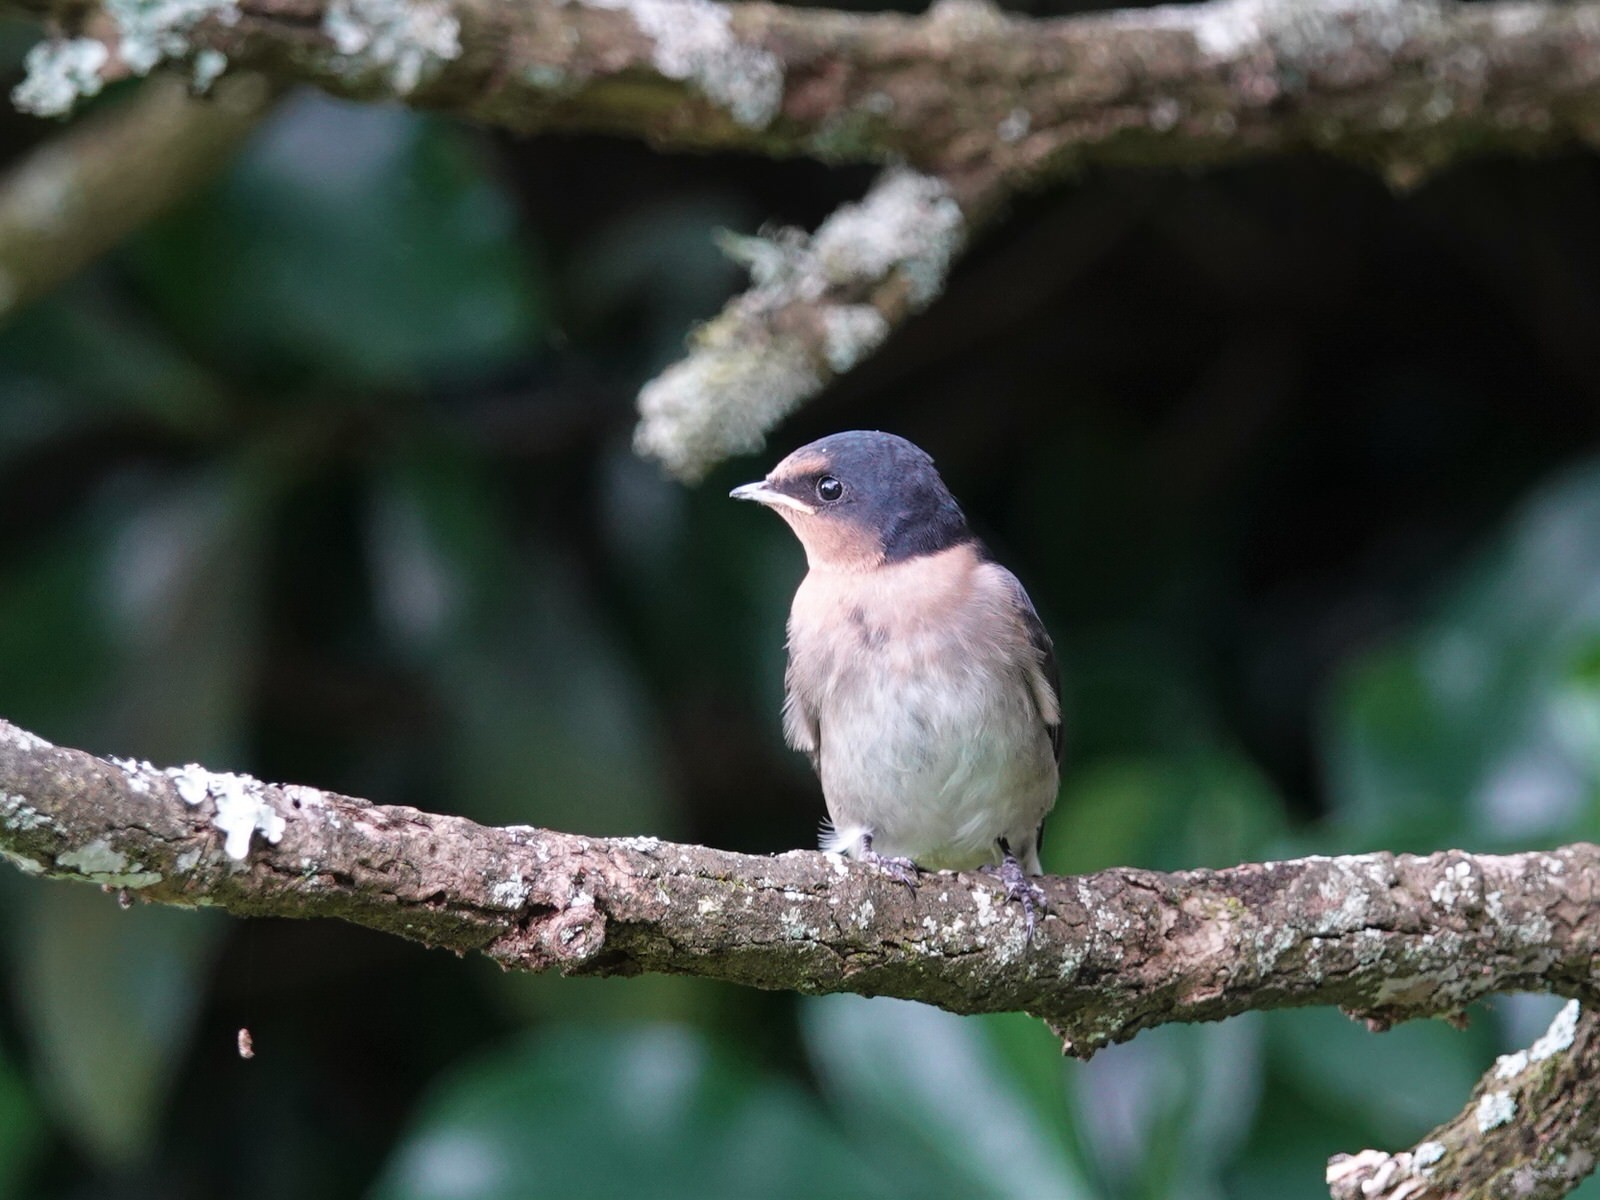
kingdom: Animalia
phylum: Chordata
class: Aves
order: Passeriformes
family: Hirundinidae
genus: Hirundo
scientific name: Hirundo neoxena
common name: Welcome swallow
